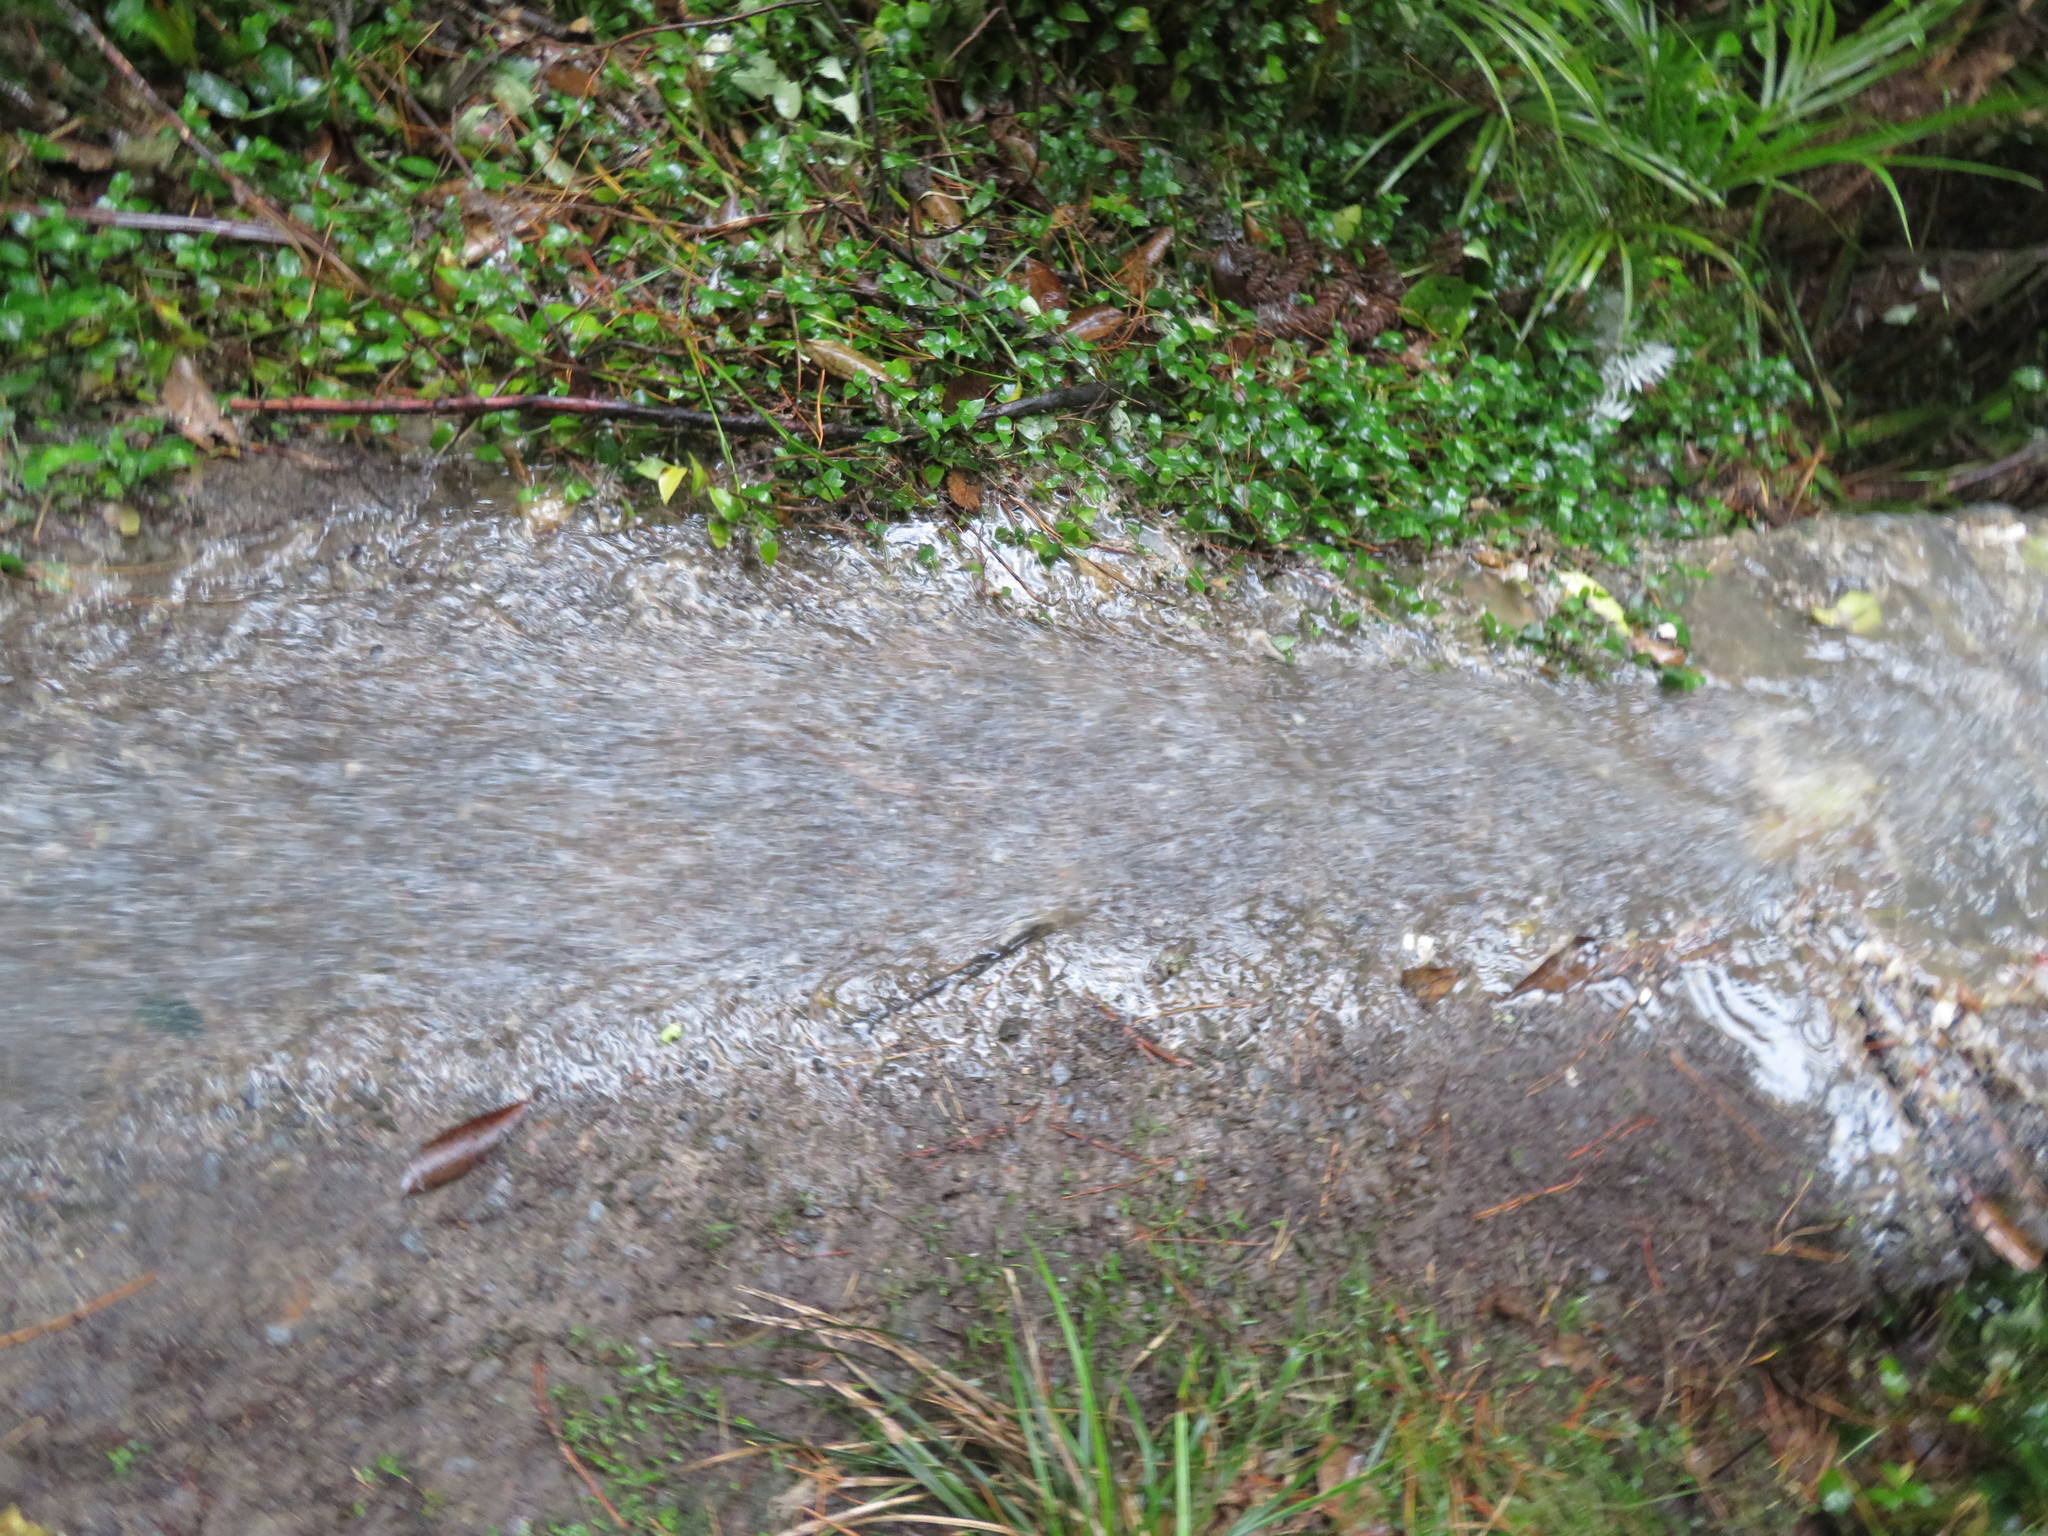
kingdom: Plantae
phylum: Tracheophyta
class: Liliopsida
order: Arecales
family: Arecaceae
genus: Rhopalostylis
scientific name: Rhopalostylis sapida
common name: Feather-duster palm
